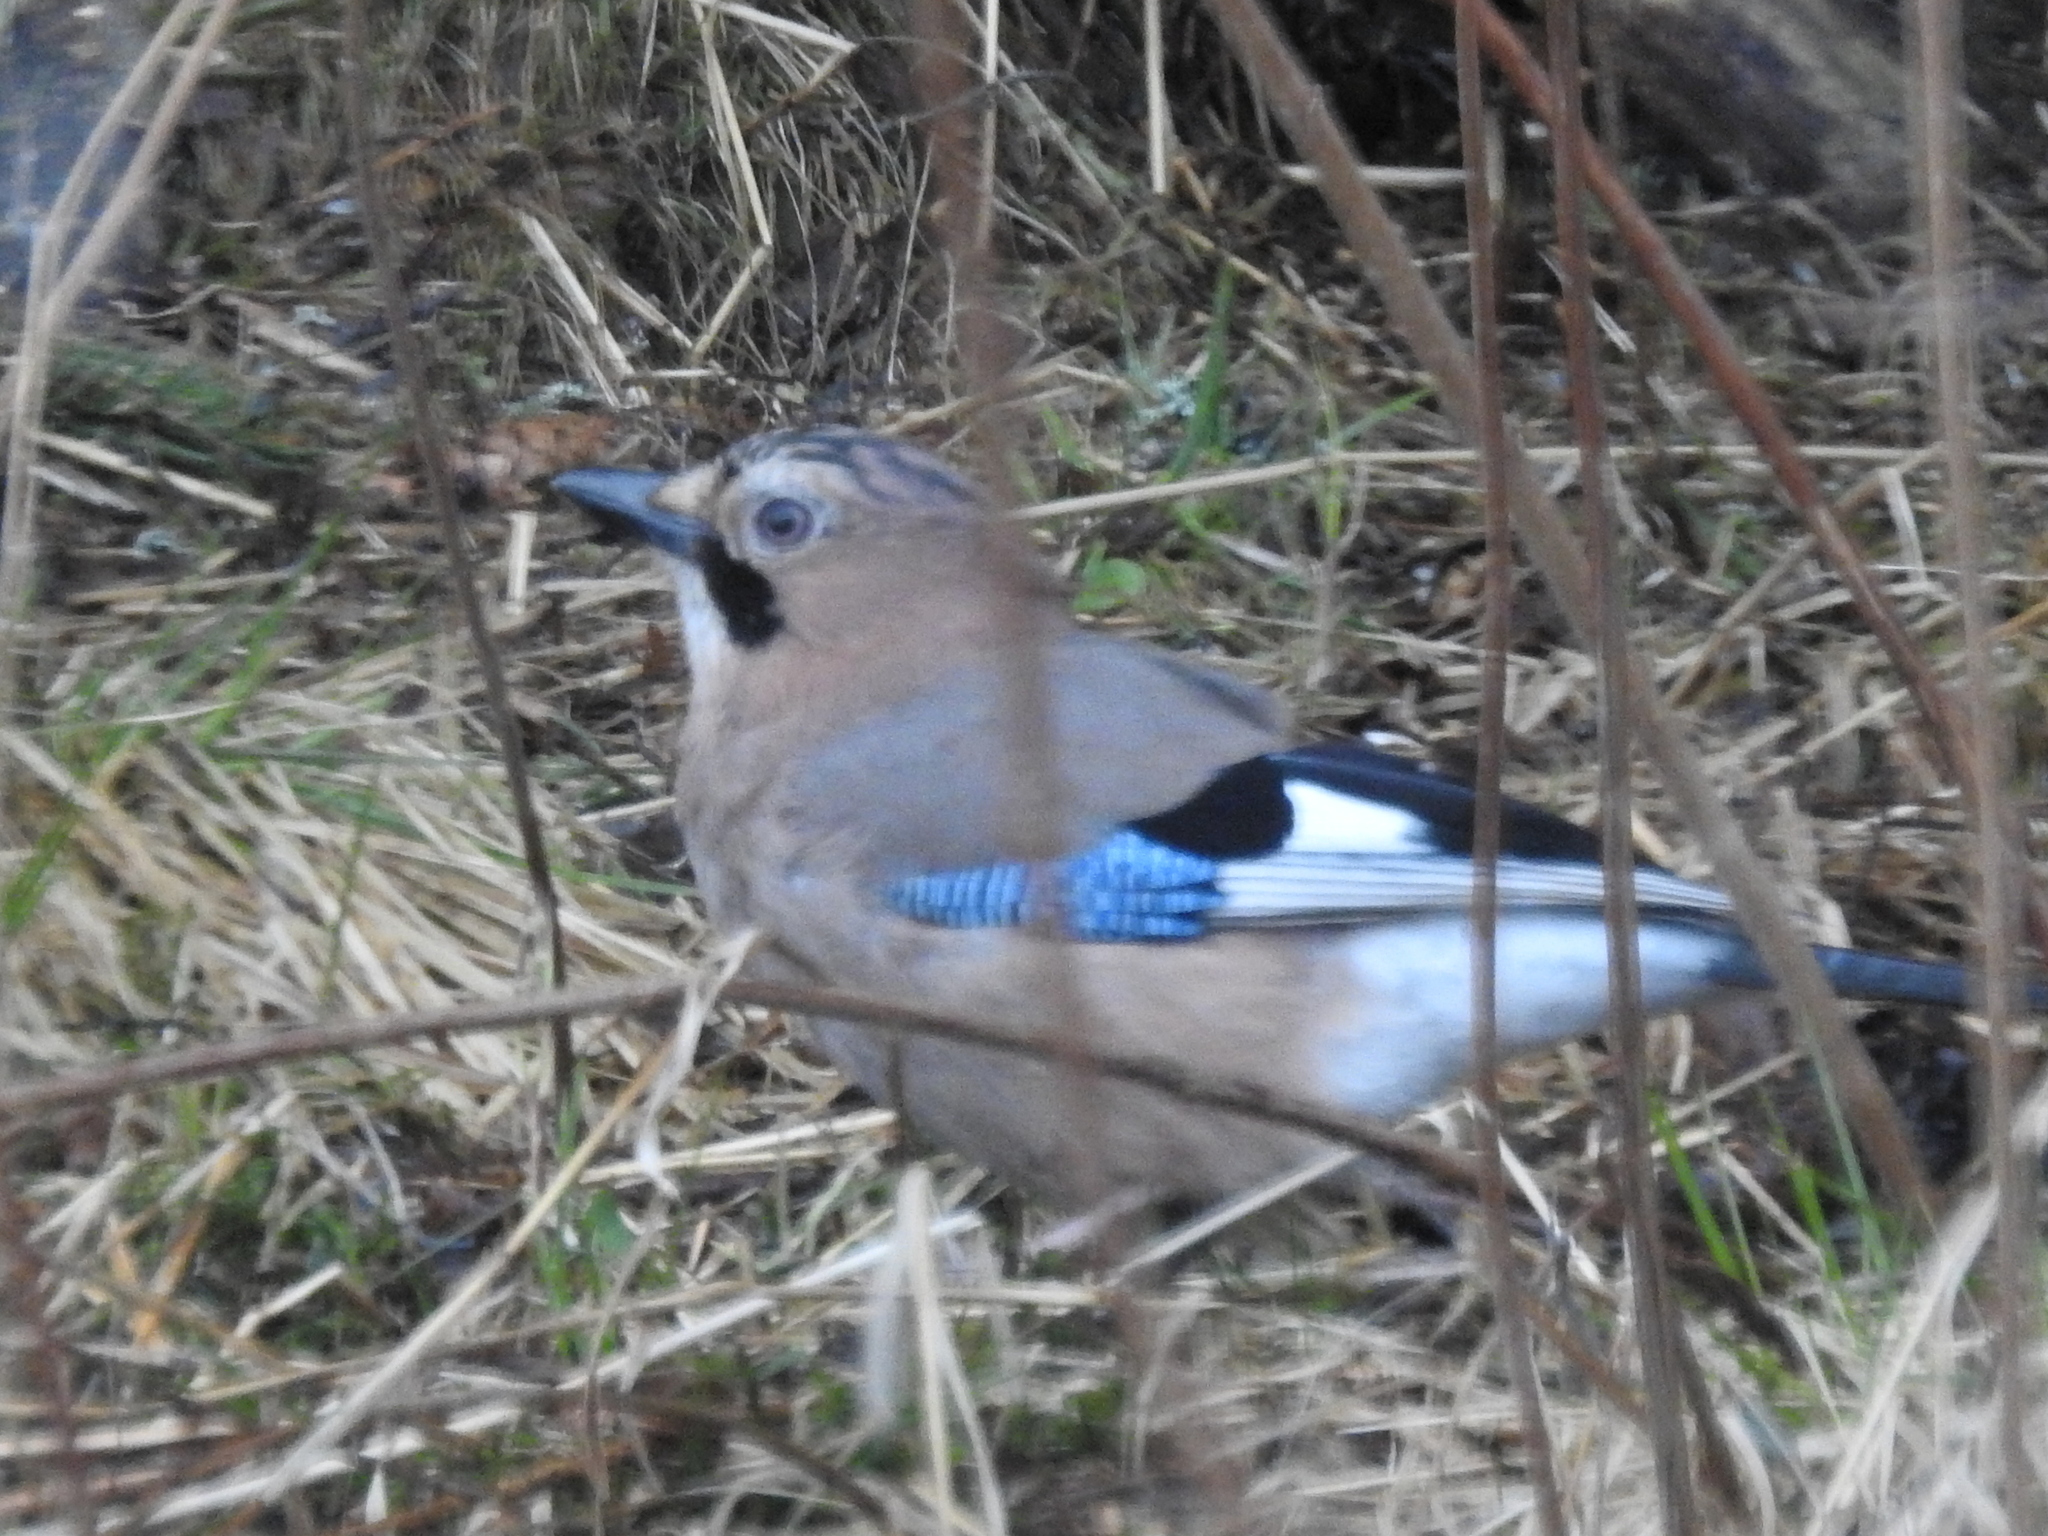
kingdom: Animalia
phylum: Chordata
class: Aves
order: Passeriformes
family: Corvidae
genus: Garrulus
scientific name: Garrulus glandarius
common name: Eurasian jay
